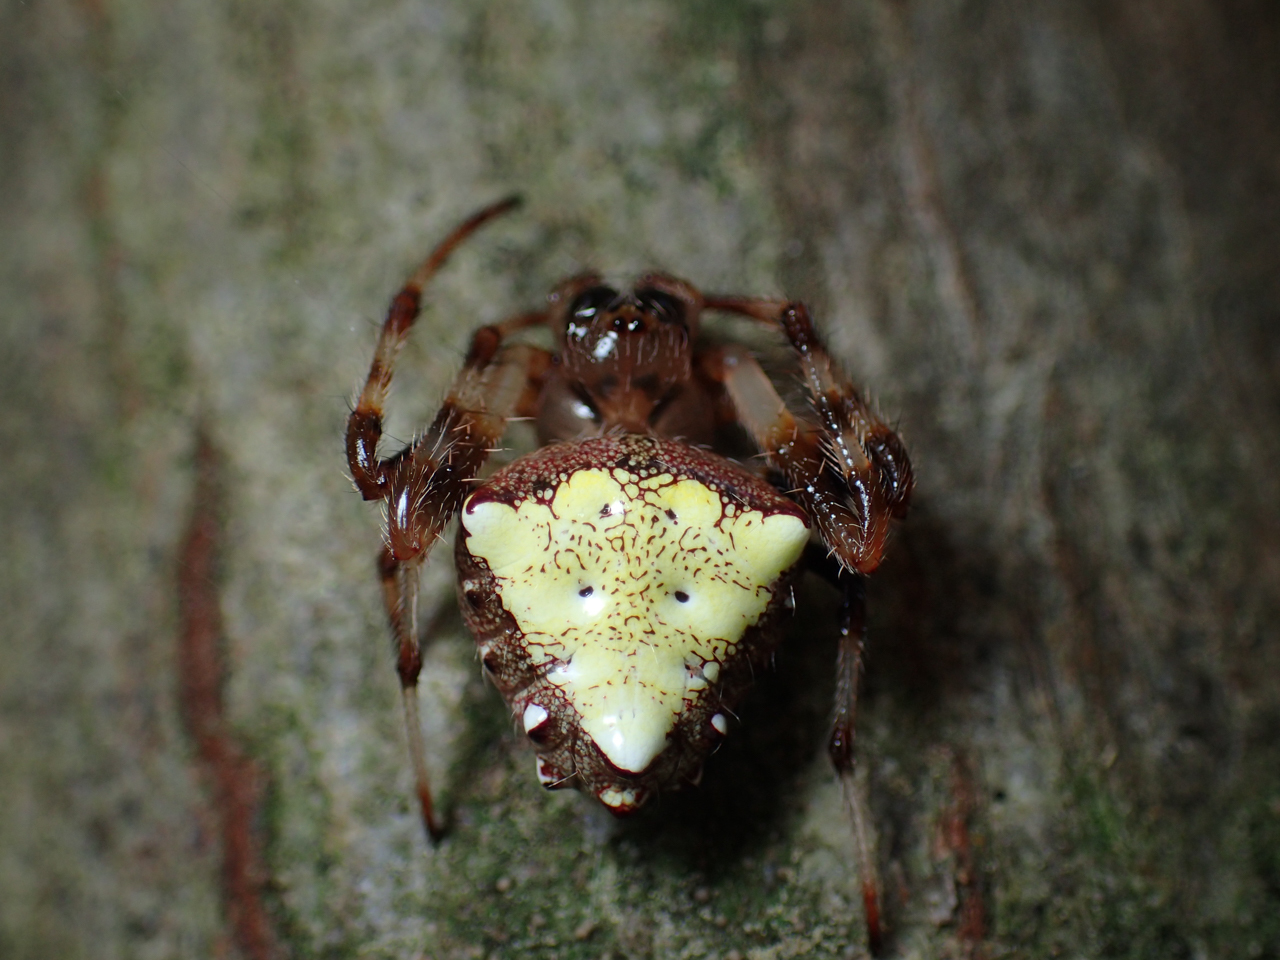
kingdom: Animalia
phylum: Arthropoda
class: Arachnida
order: Araneae
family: Araneidae
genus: Verrucosa
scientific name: Verrucosa arenata
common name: Orb weavers
